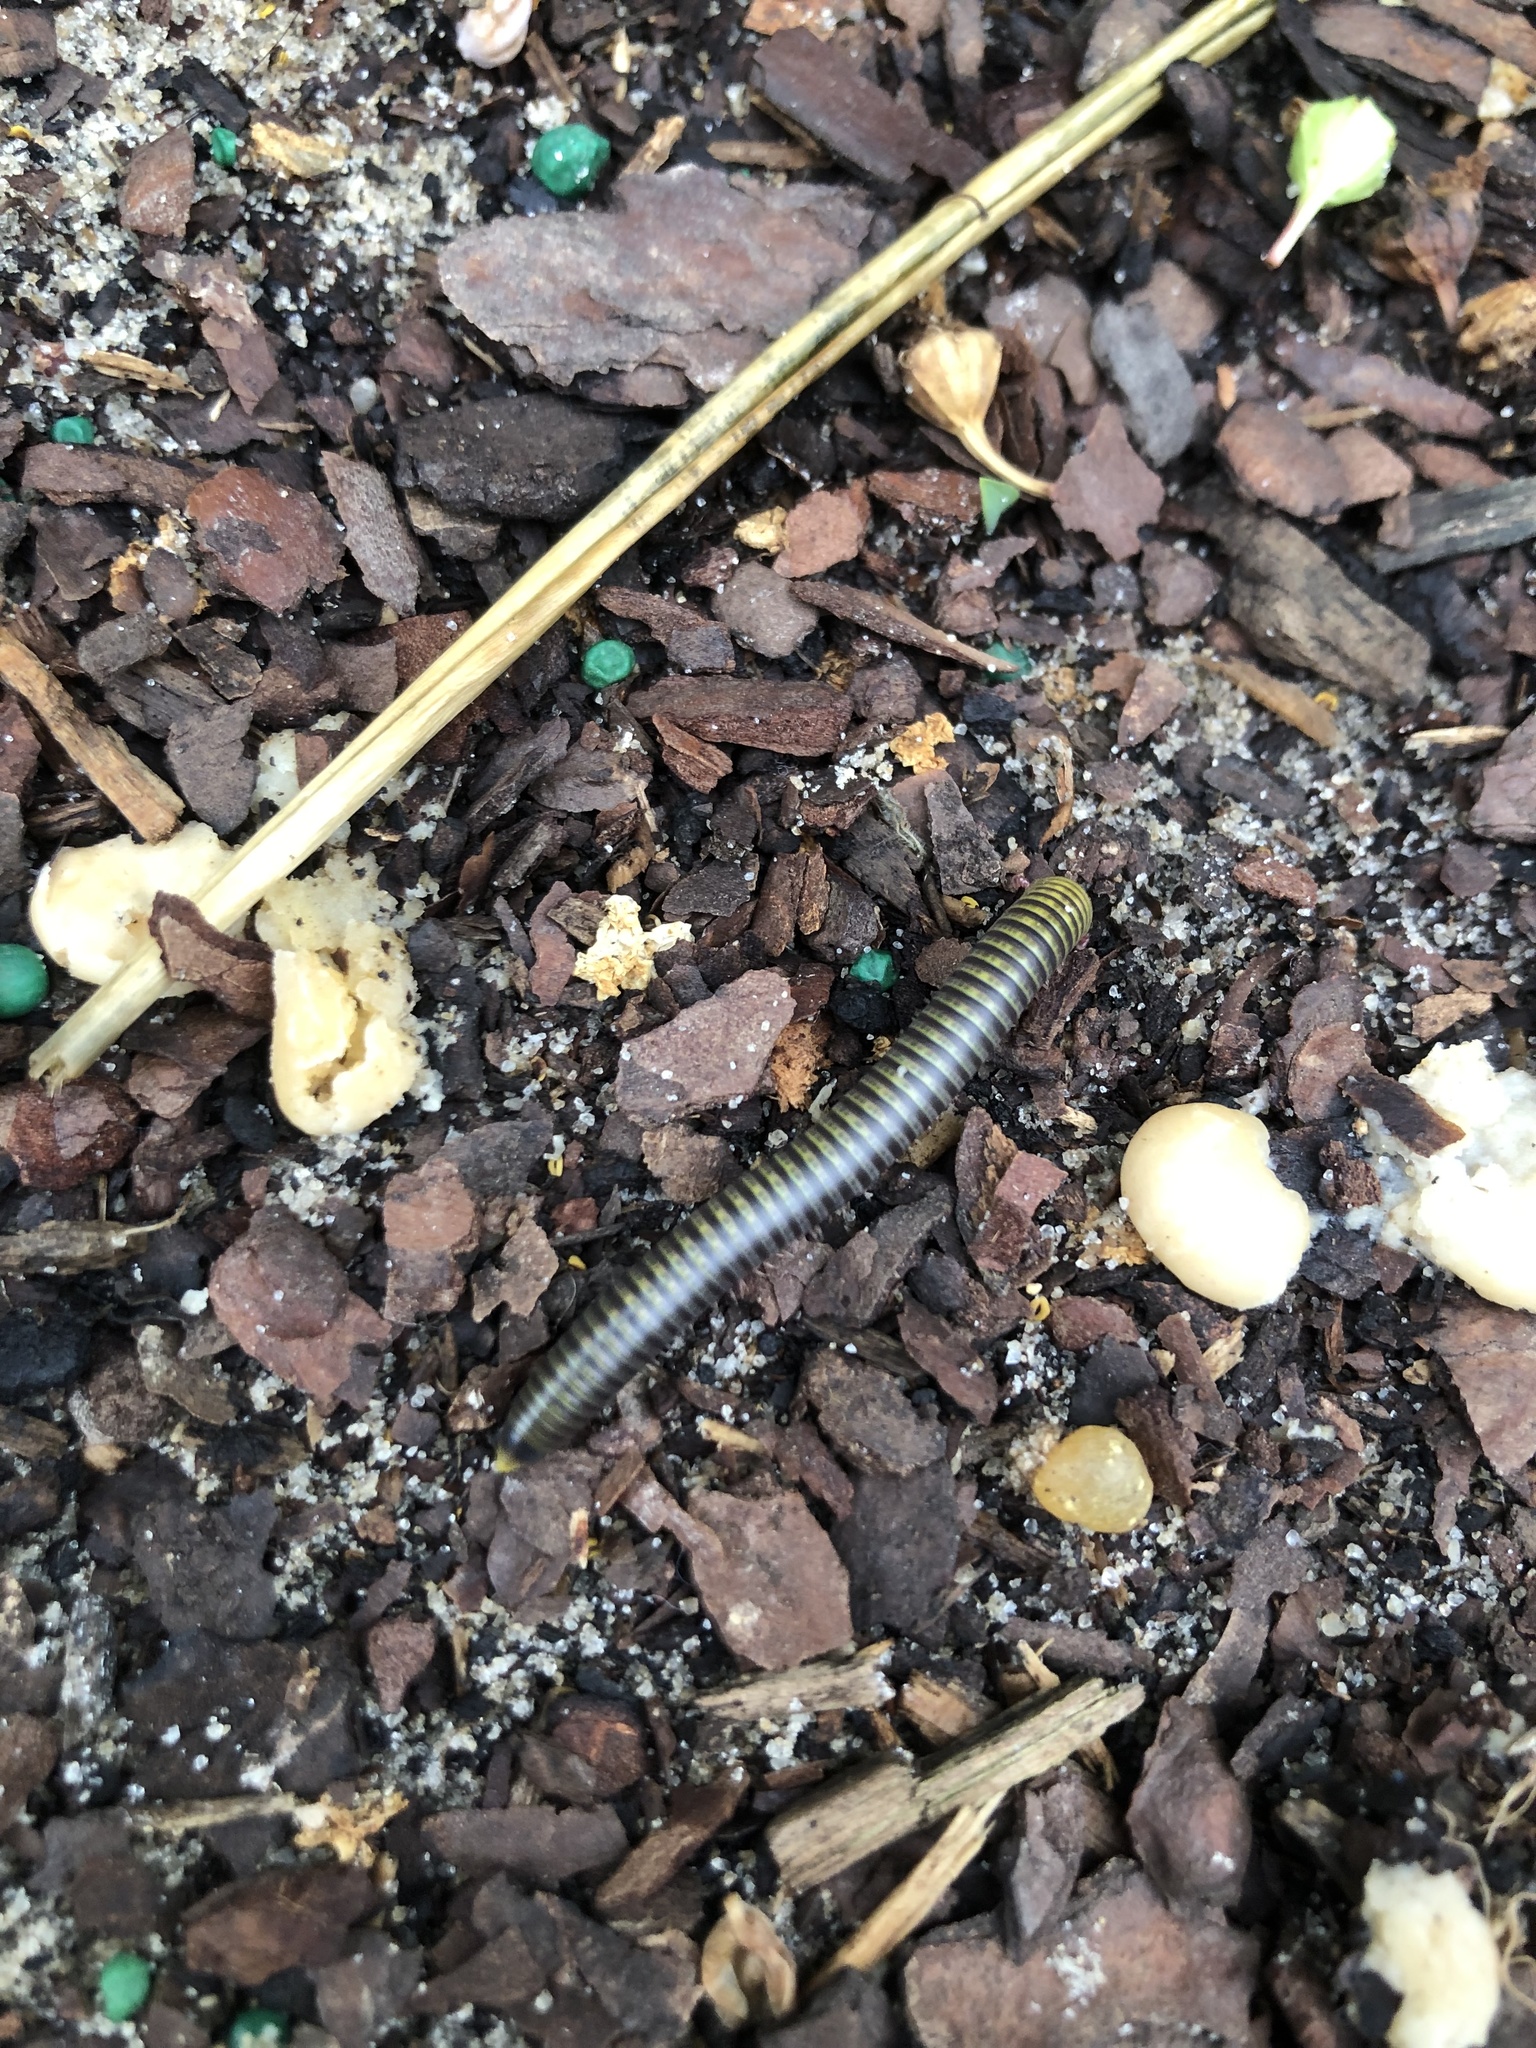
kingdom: Animalia
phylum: Arthropoda
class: Diplopoda
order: Spirobolida
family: Rhinocricidae
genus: Anadenobolus
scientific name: Anadenobolus monilicornis
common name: Caribbean millipede
